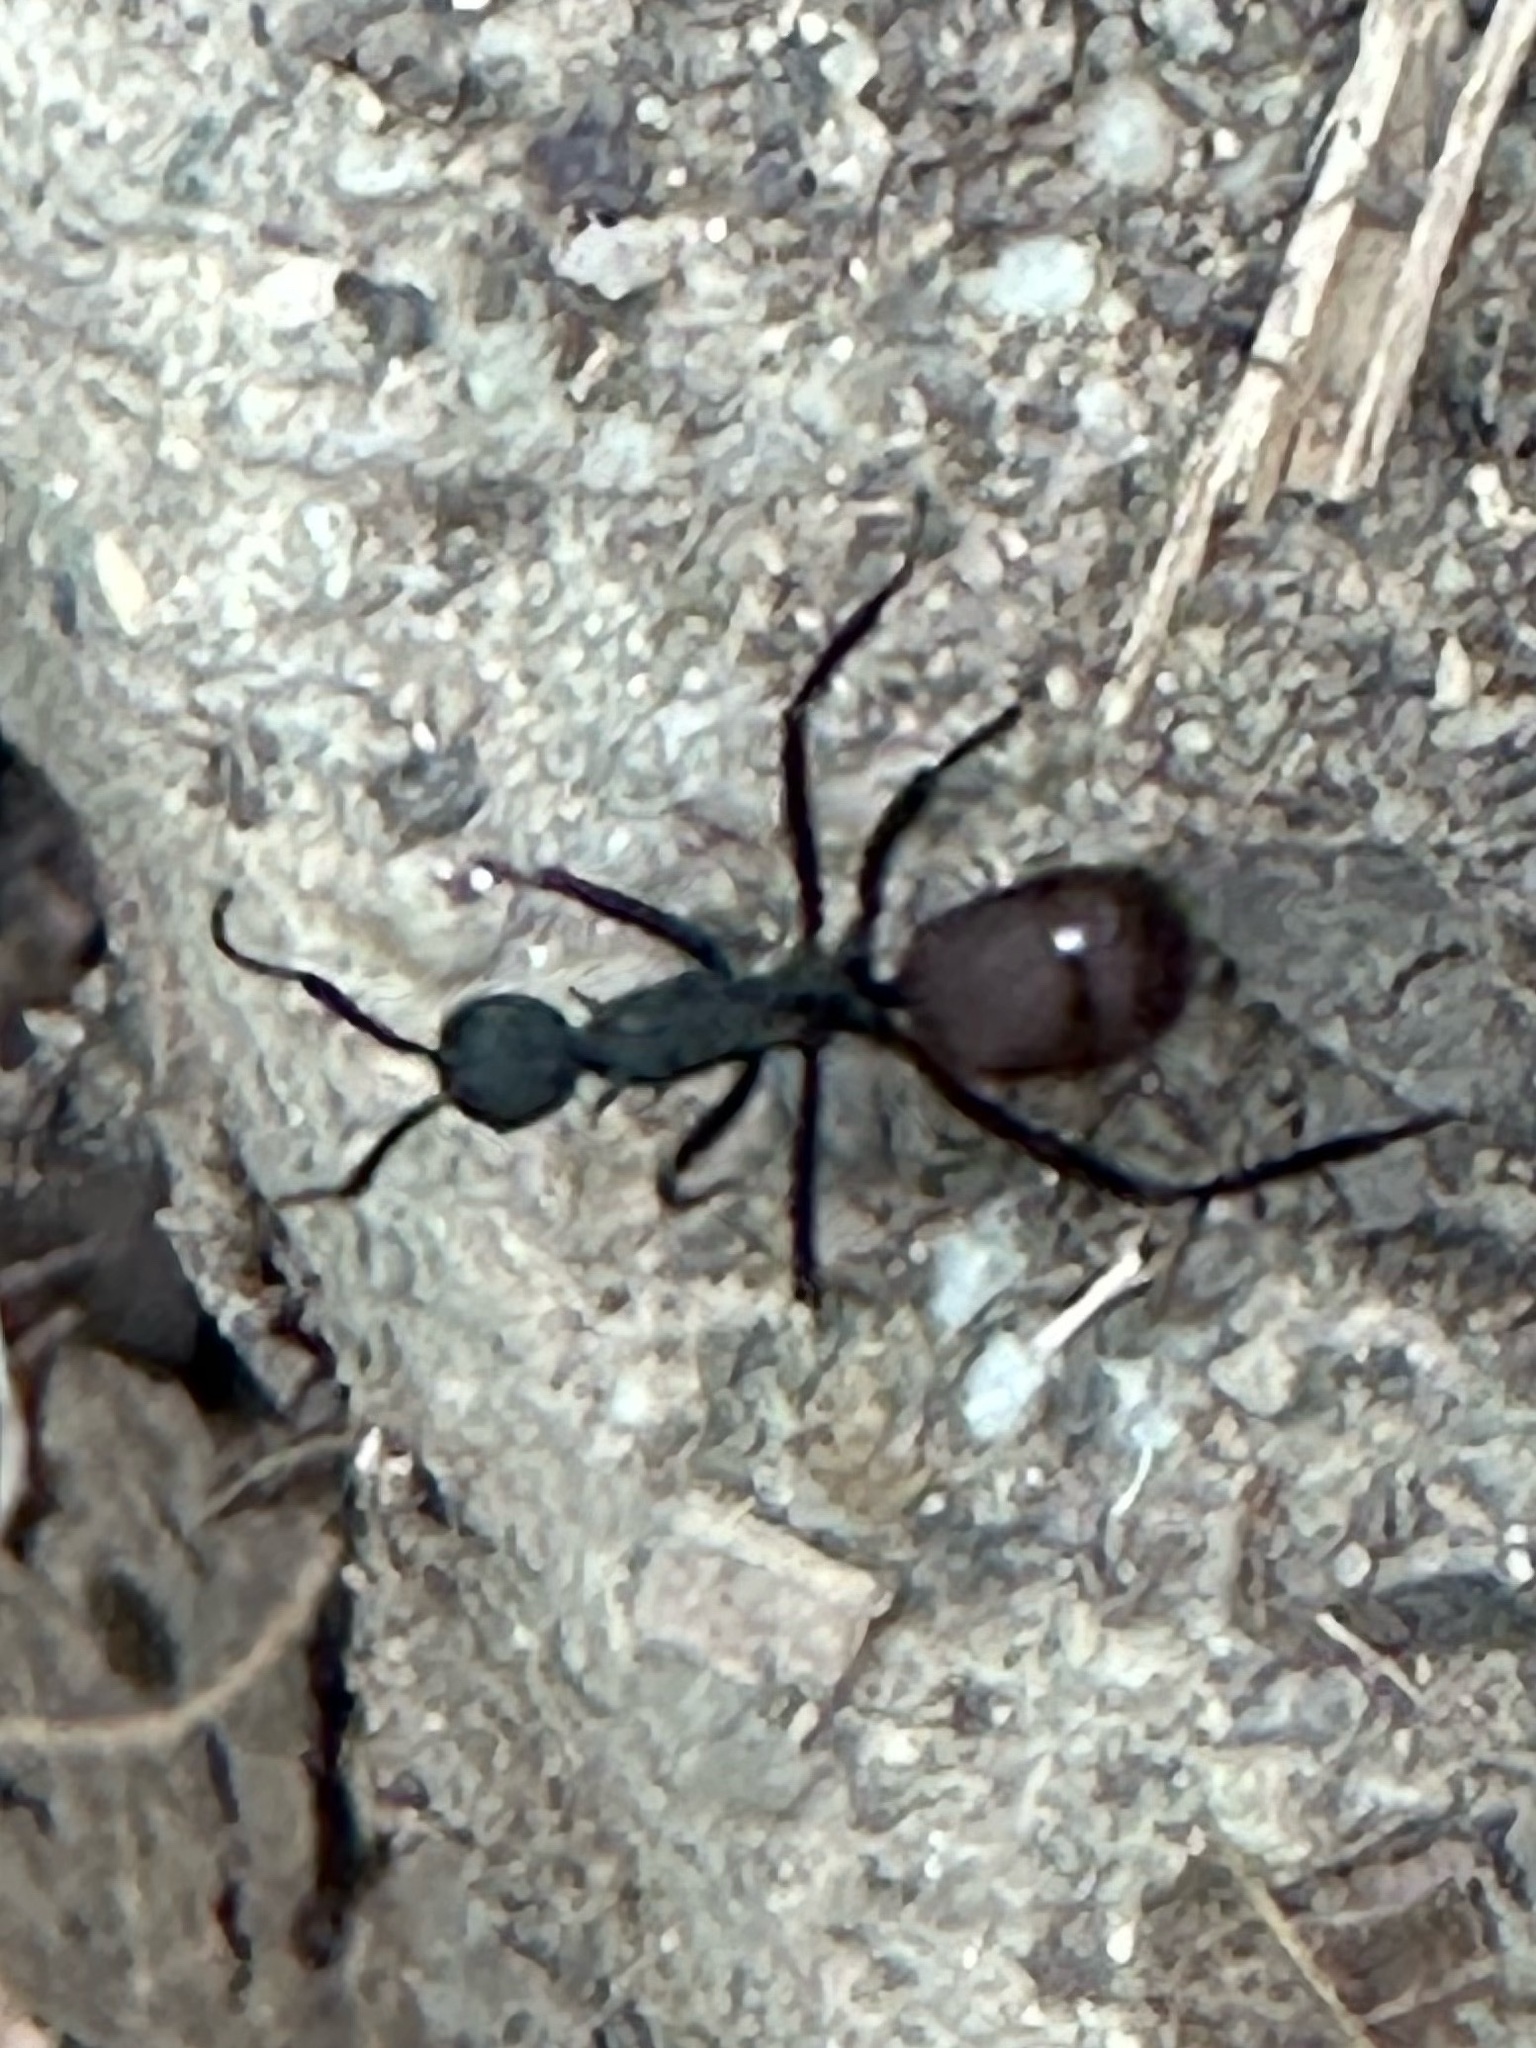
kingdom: Animalia
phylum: Arthropoda
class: Insecta
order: Hymenoptera
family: Formicidae
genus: Polyrhachis
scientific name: Polyrhachis abdominalis
